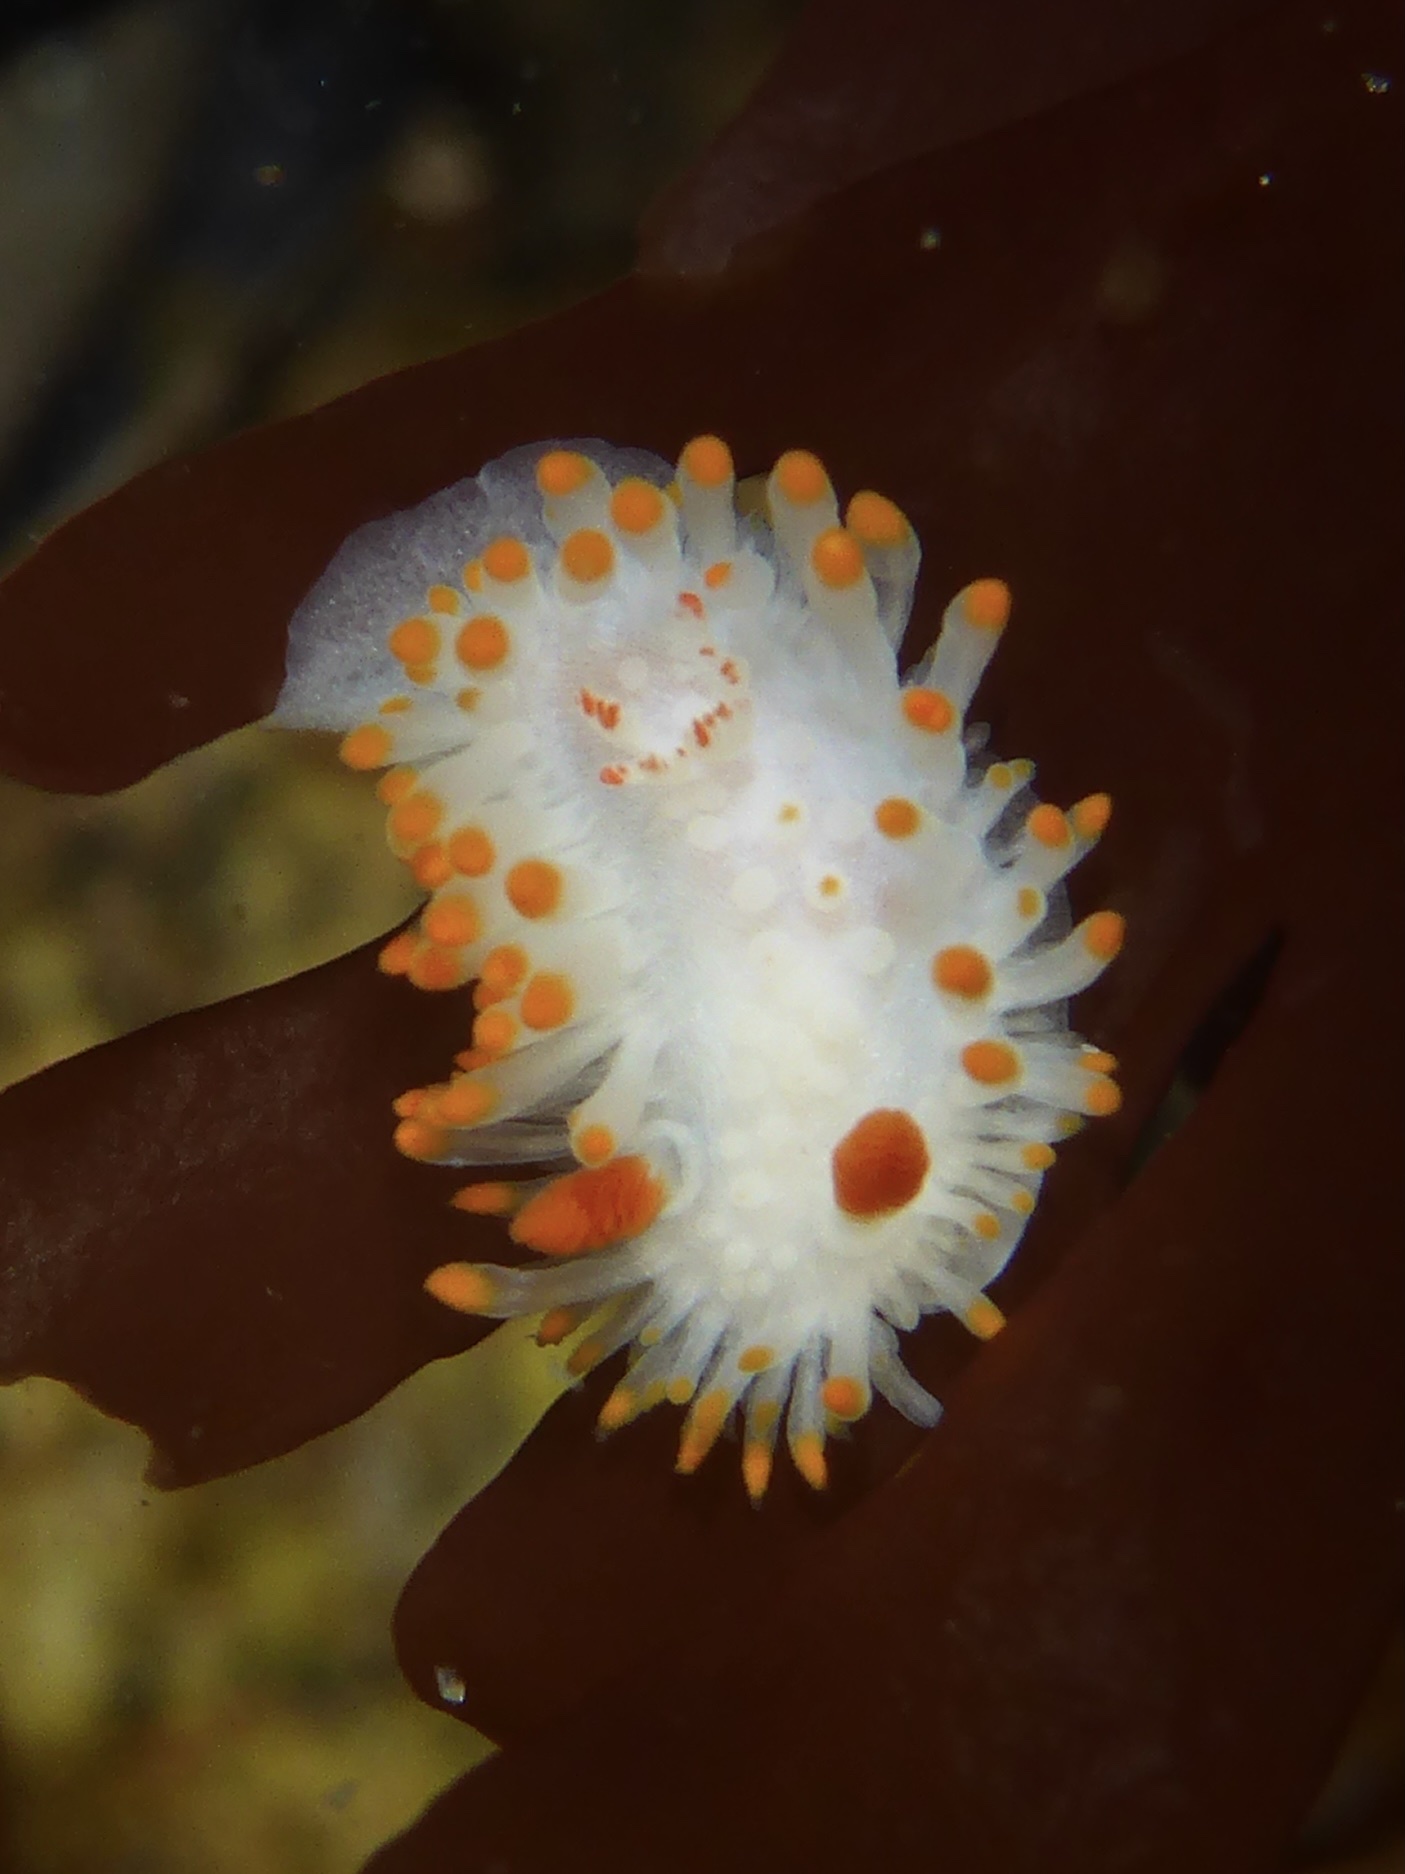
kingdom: Animalia
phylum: Mollusca
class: Gastropoda
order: Nudibranchia
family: Polyceridae
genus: Limacia
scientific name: Limacia cockerelli
